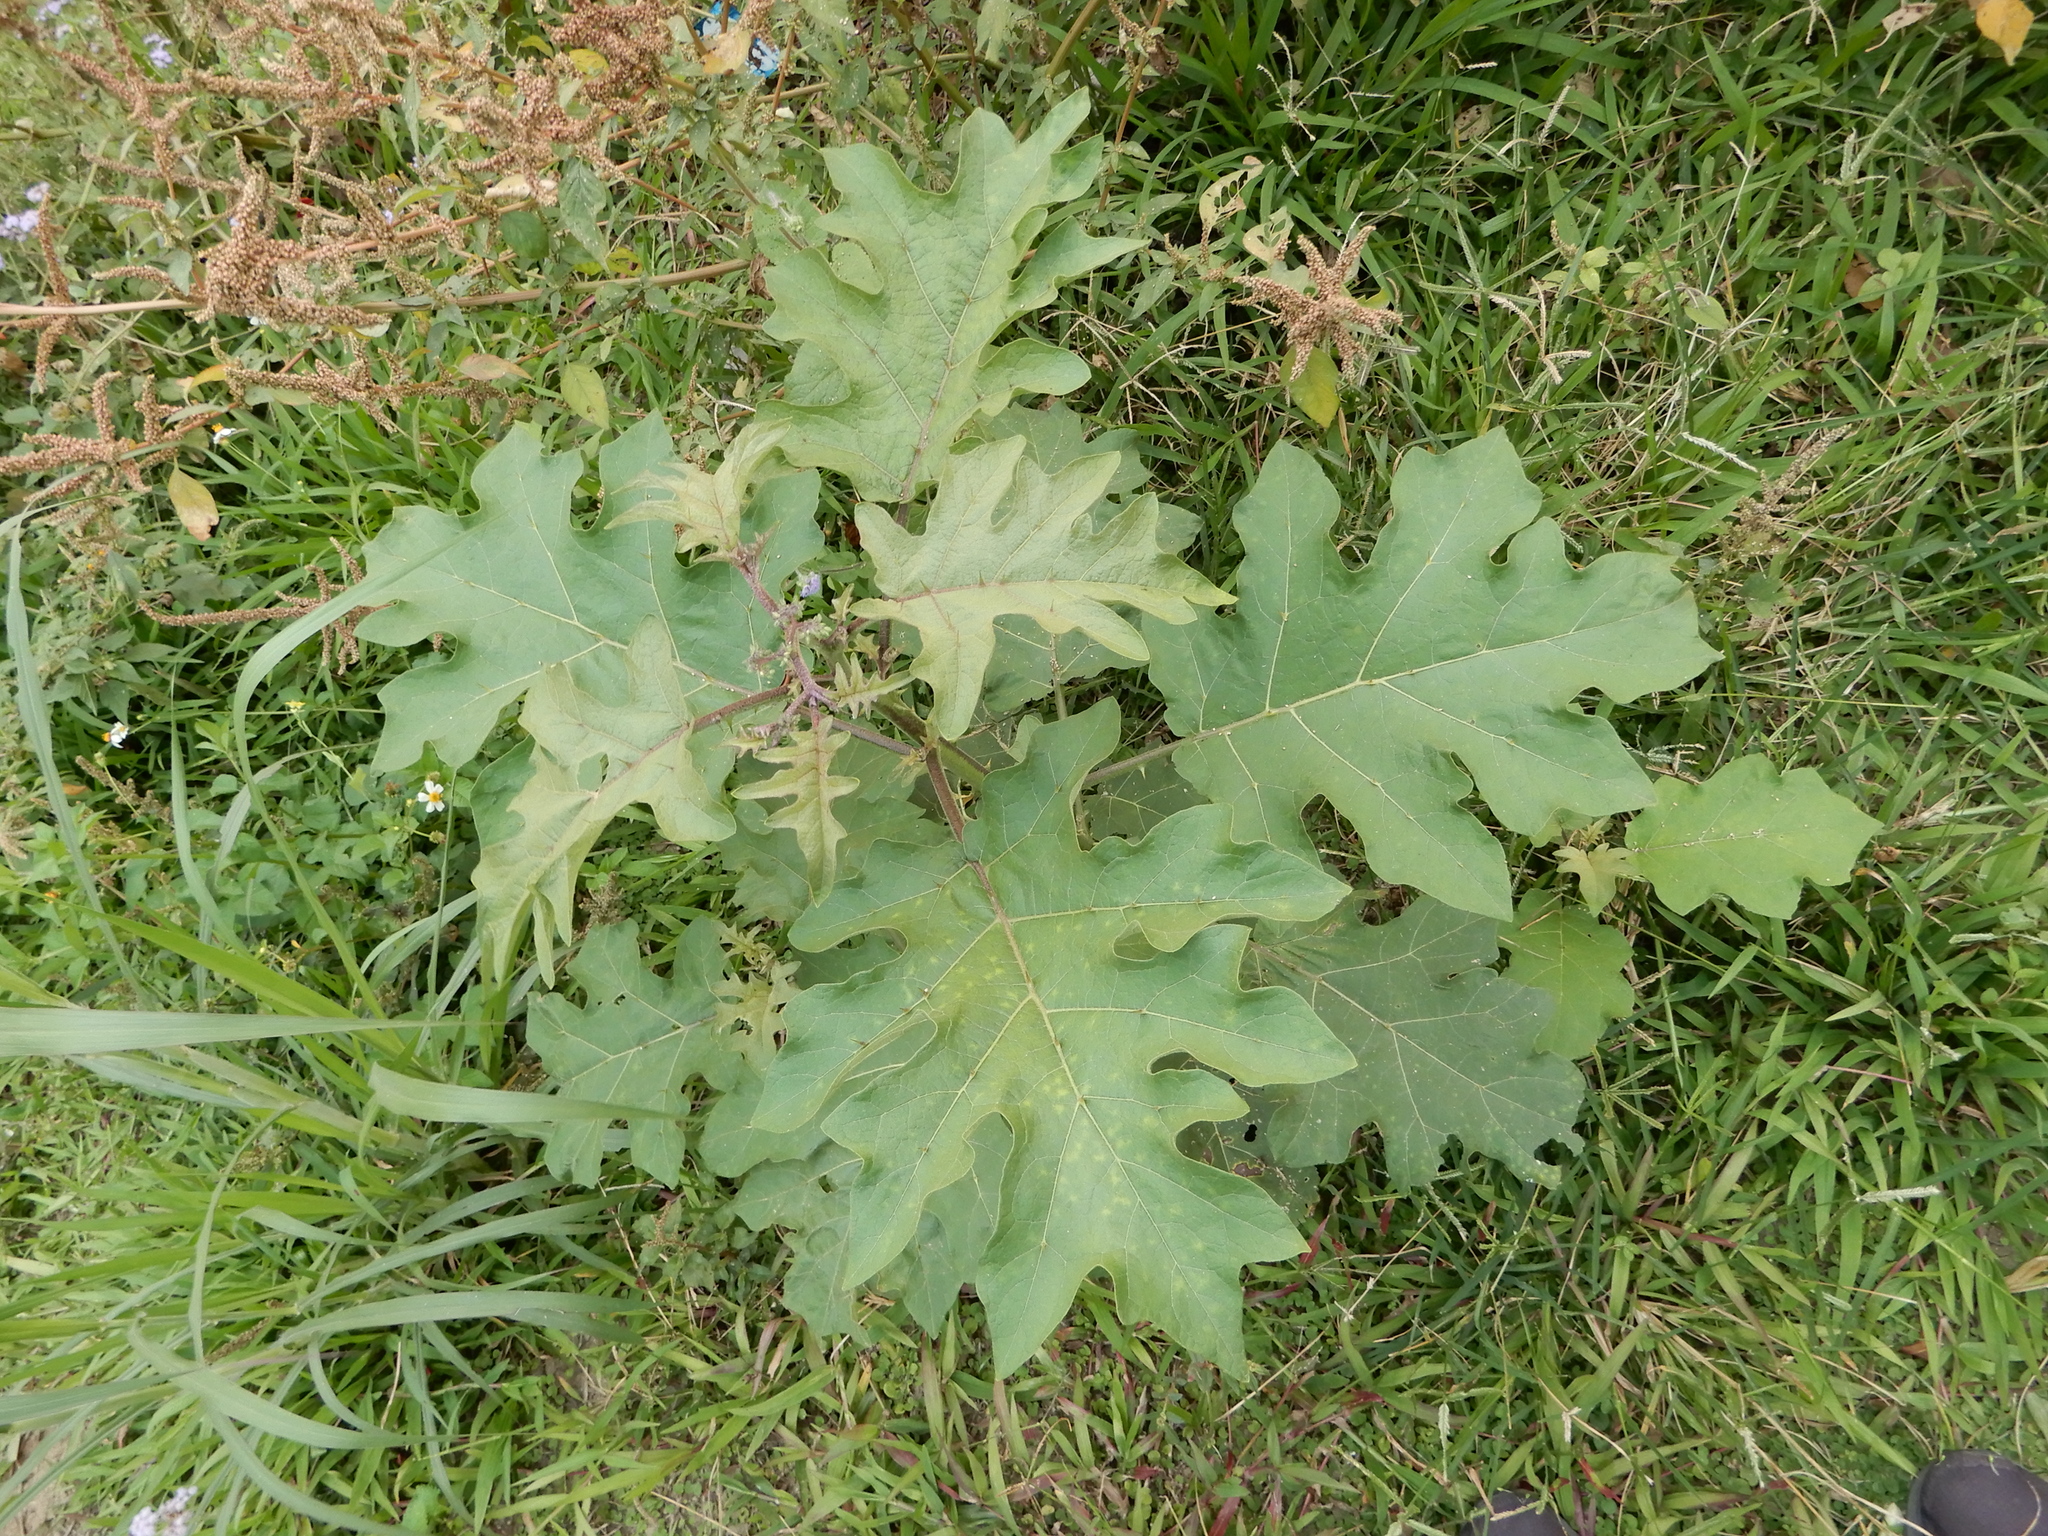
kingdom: Plantae
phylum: Tracheophyta
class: Magnoliopsida
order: Solanales
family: Solanaceae
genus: Solanum
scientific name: Solanum torvum
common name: Turkey berry
